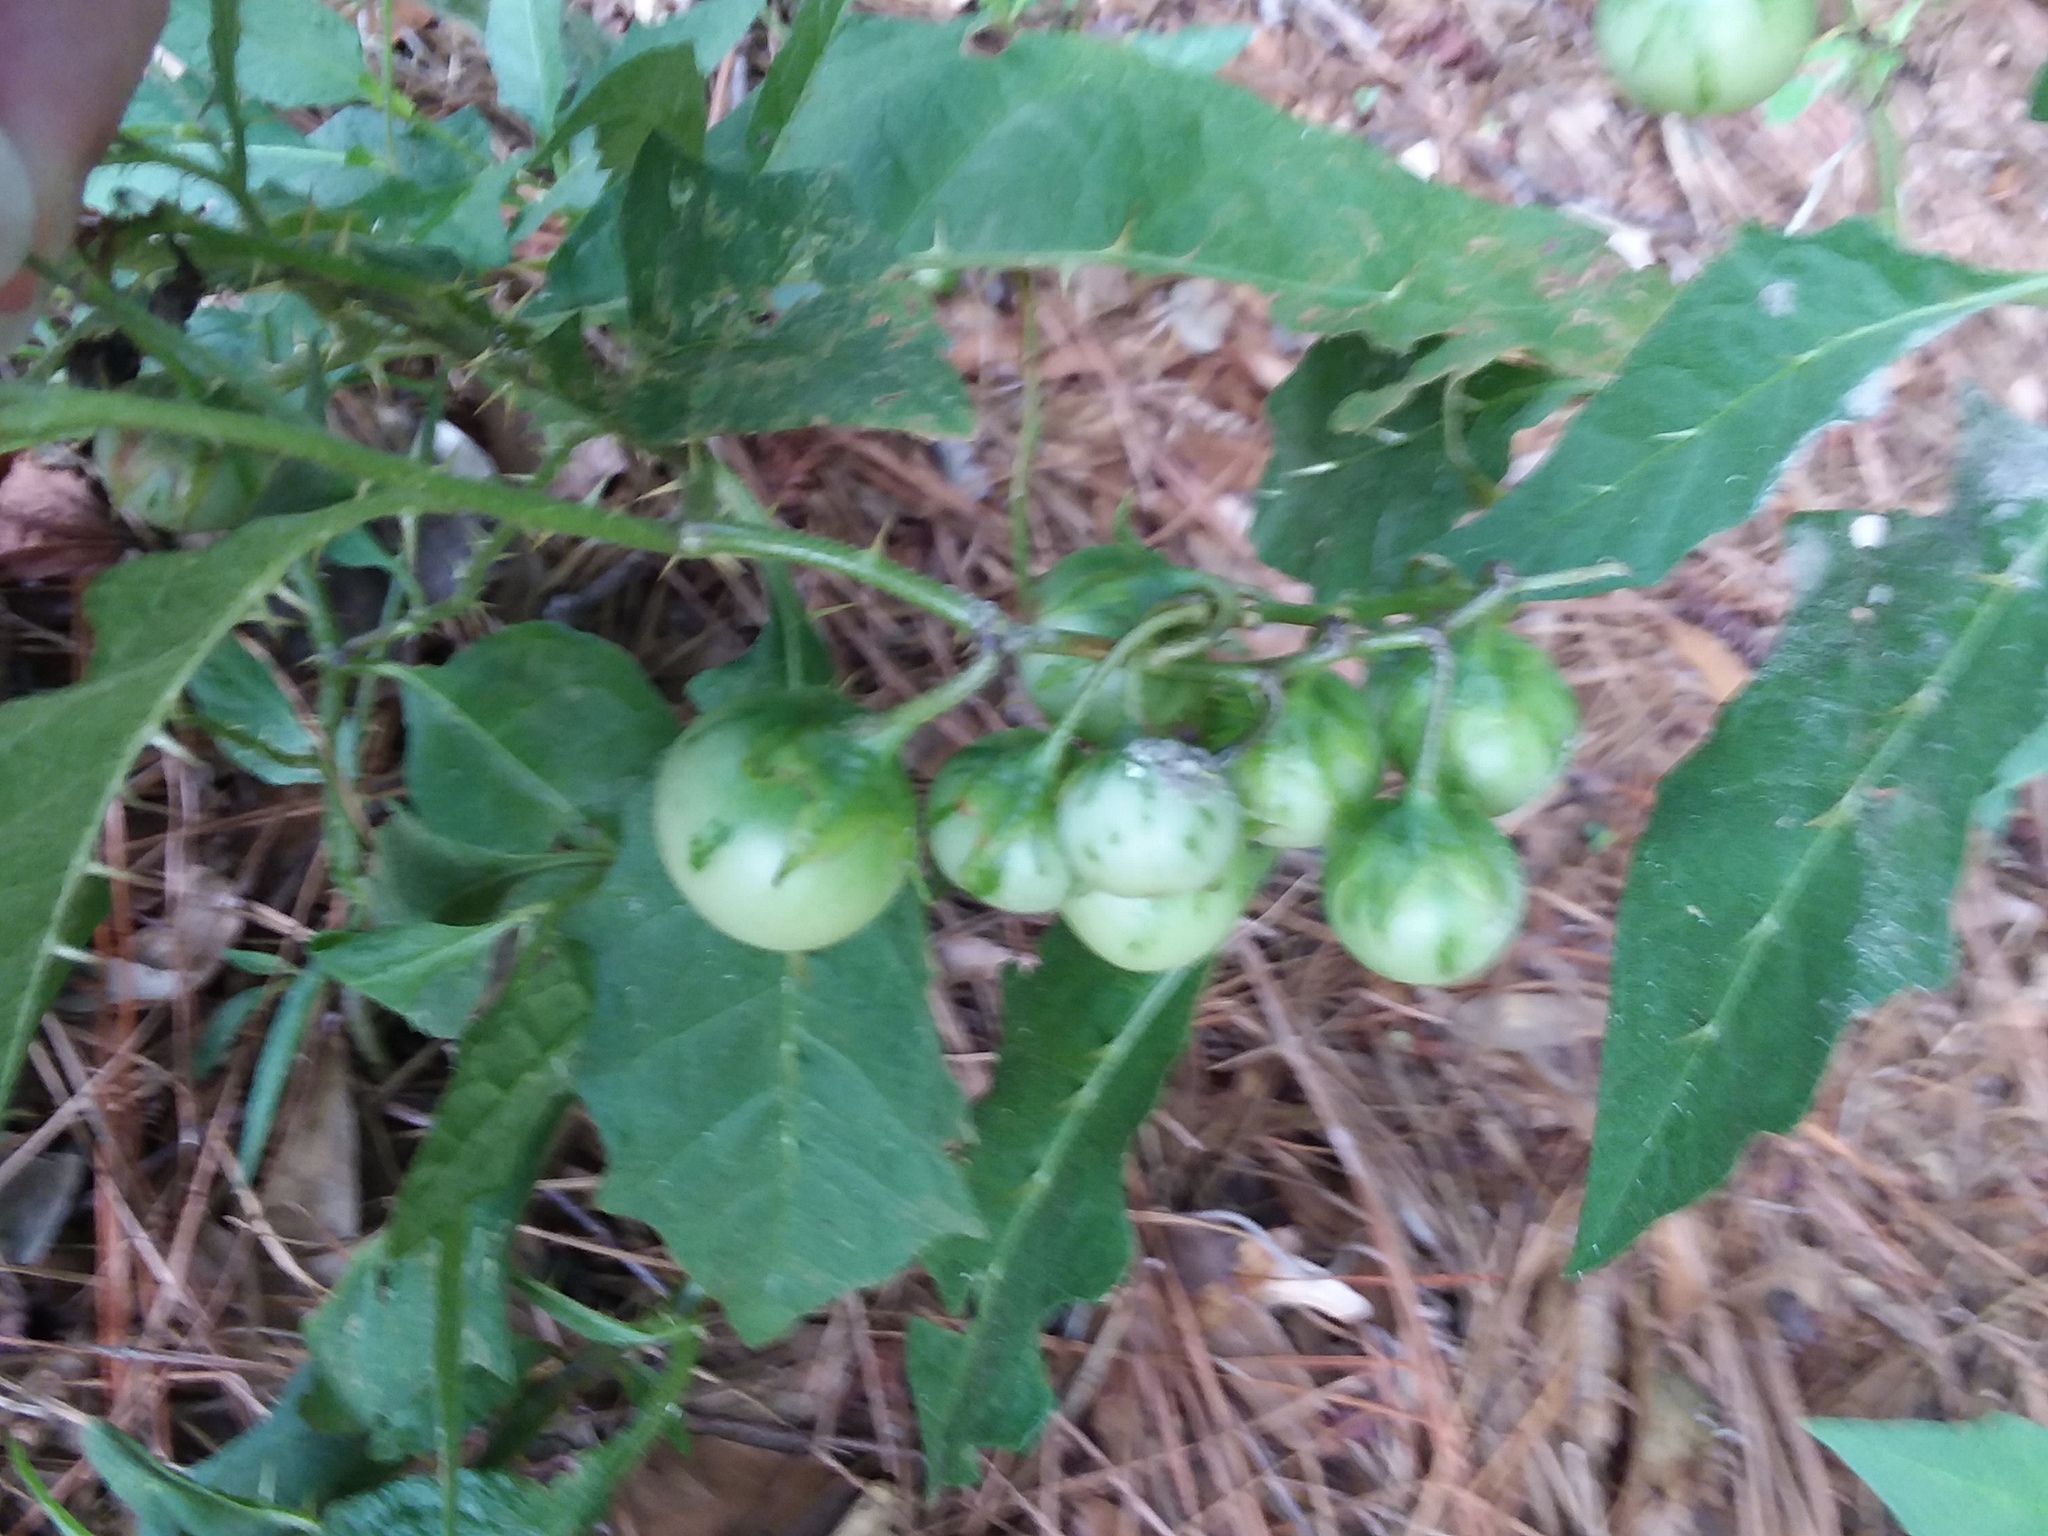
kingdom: Plantae
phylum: Tracheophyta
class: Magnoliopsida
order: Solanales
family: Solanaceae
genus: Solanum
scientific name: Solanum carolinense
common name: Horse-nettle
